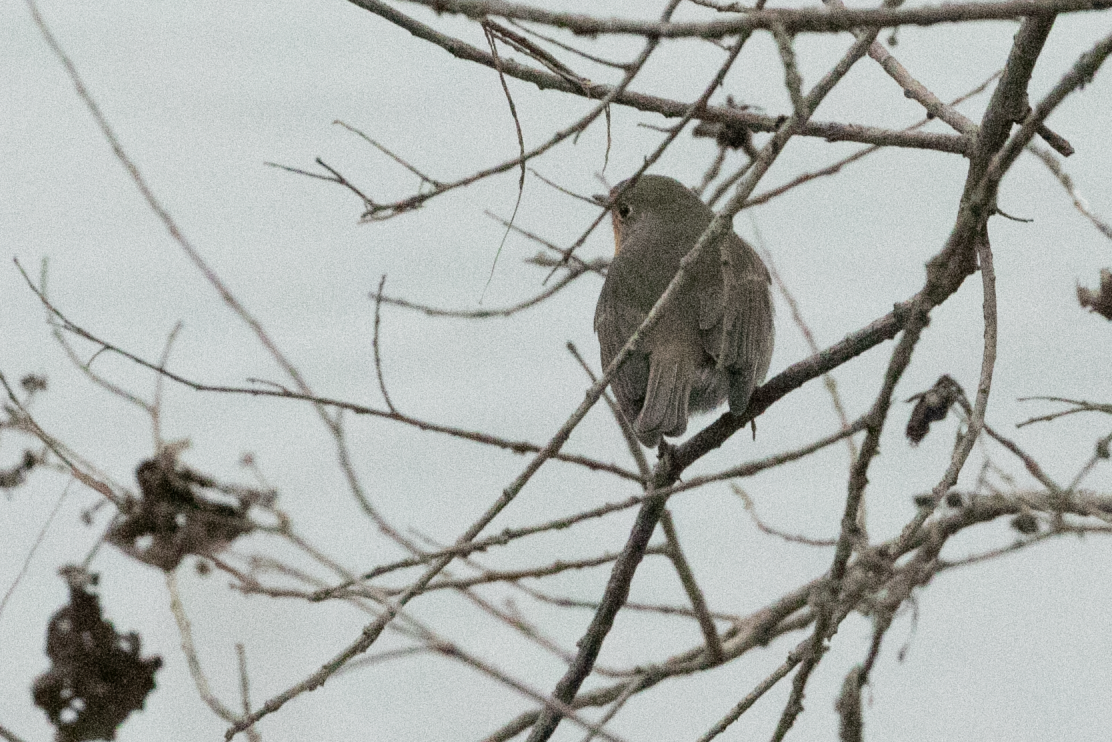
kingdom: Animalia
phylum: Chordata
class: Aves
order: Passeriformes
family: Muscicapidae
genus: Erithacus
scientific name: Erithacus rubecula
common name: European robin
